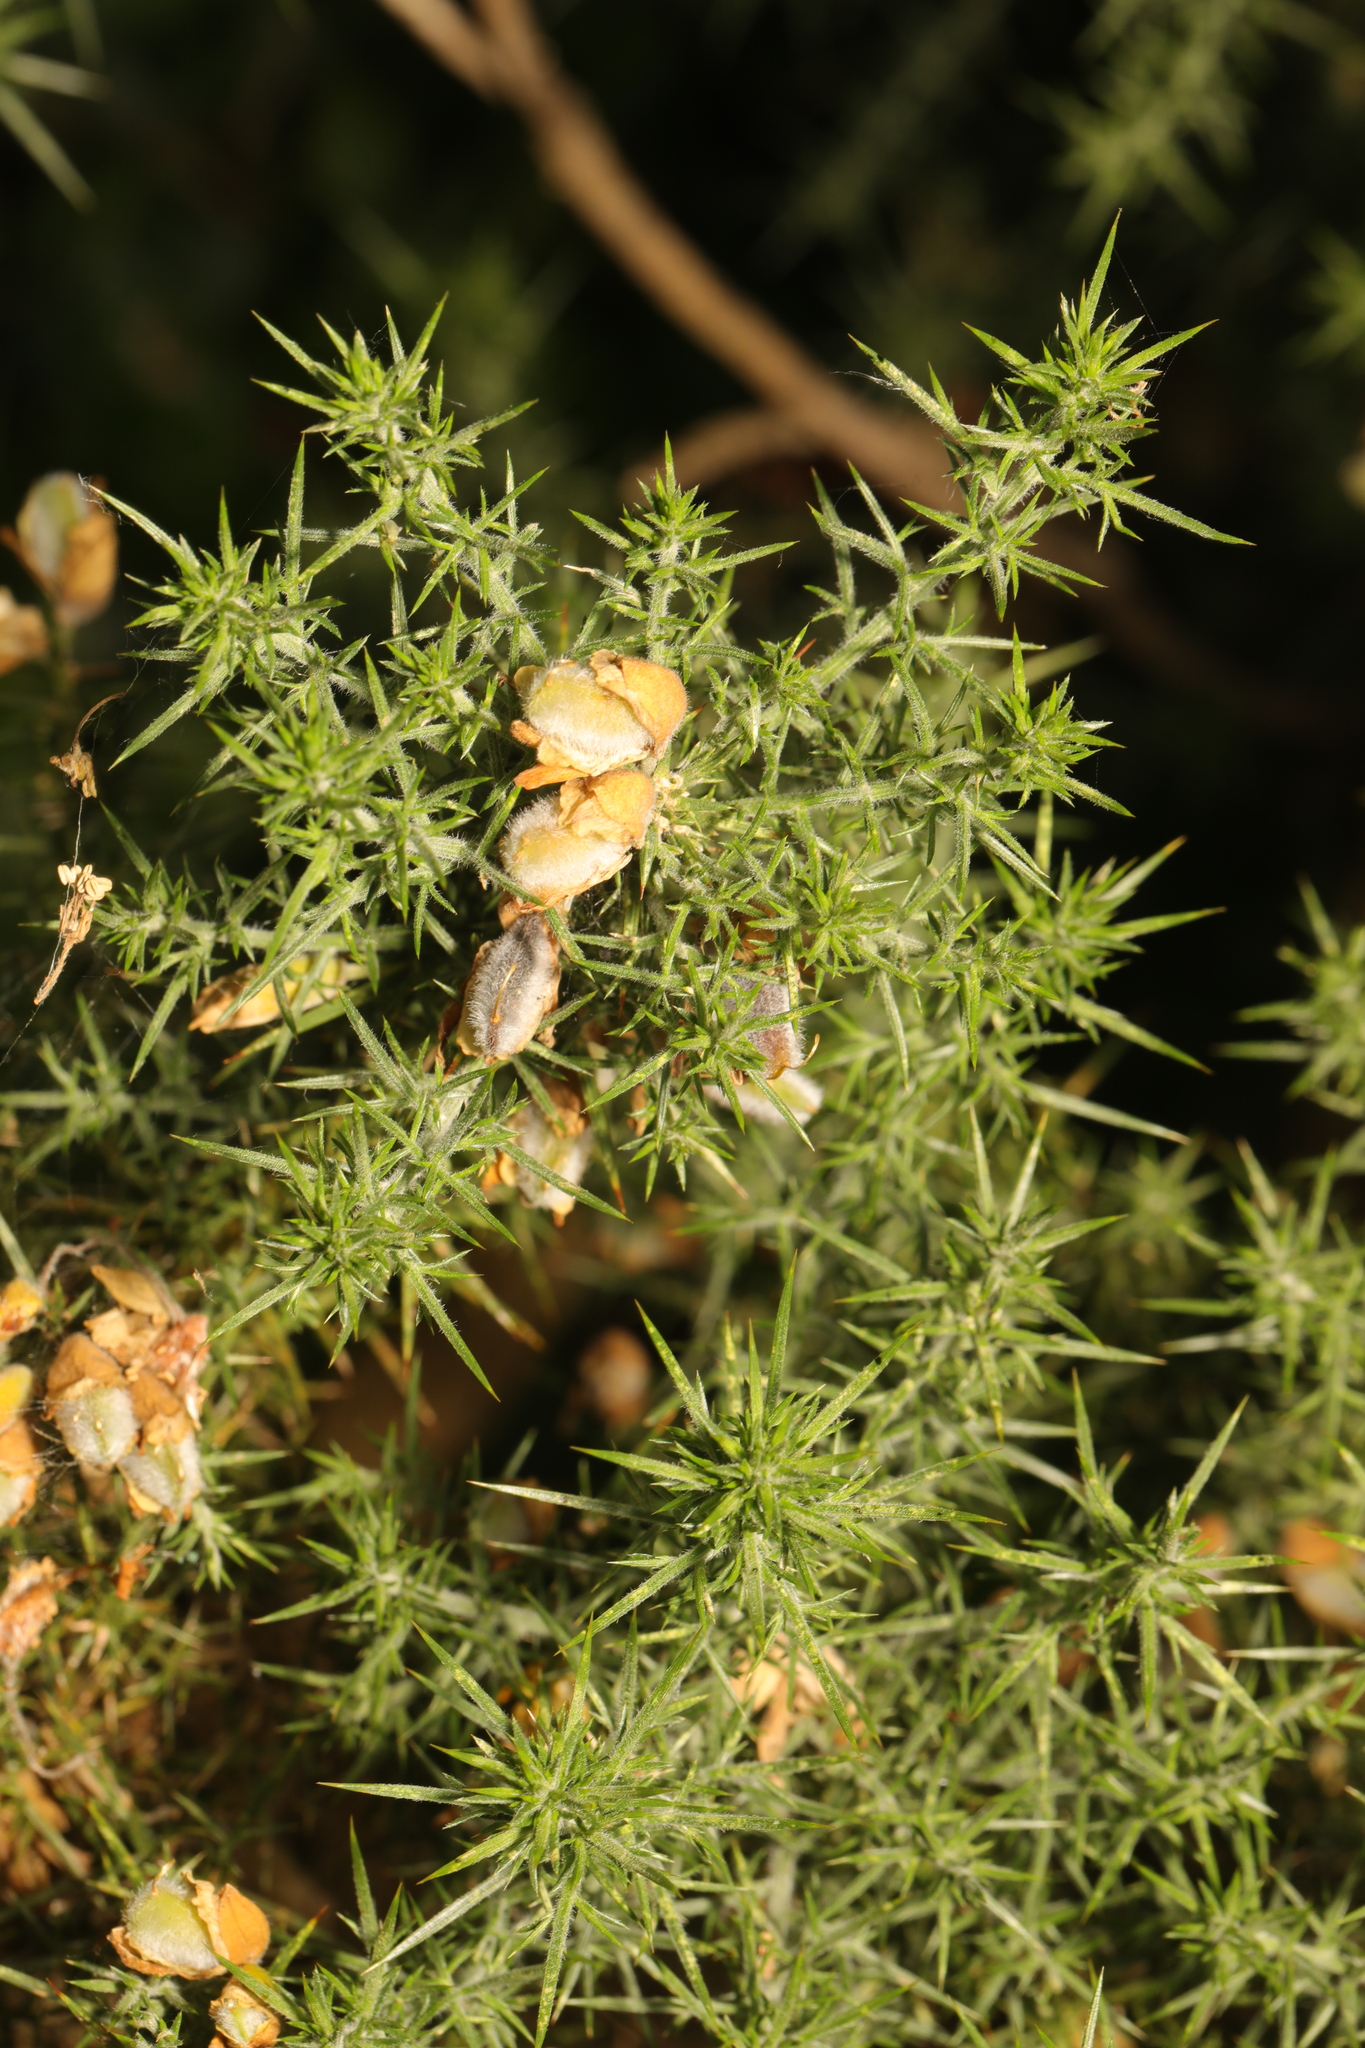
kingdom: Plantae
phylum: Tracheophyta
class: Magnoliopsida
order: Fabales
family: Fabaceae
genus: Ulex
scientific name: Ulex europaeus
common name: Common gorse
